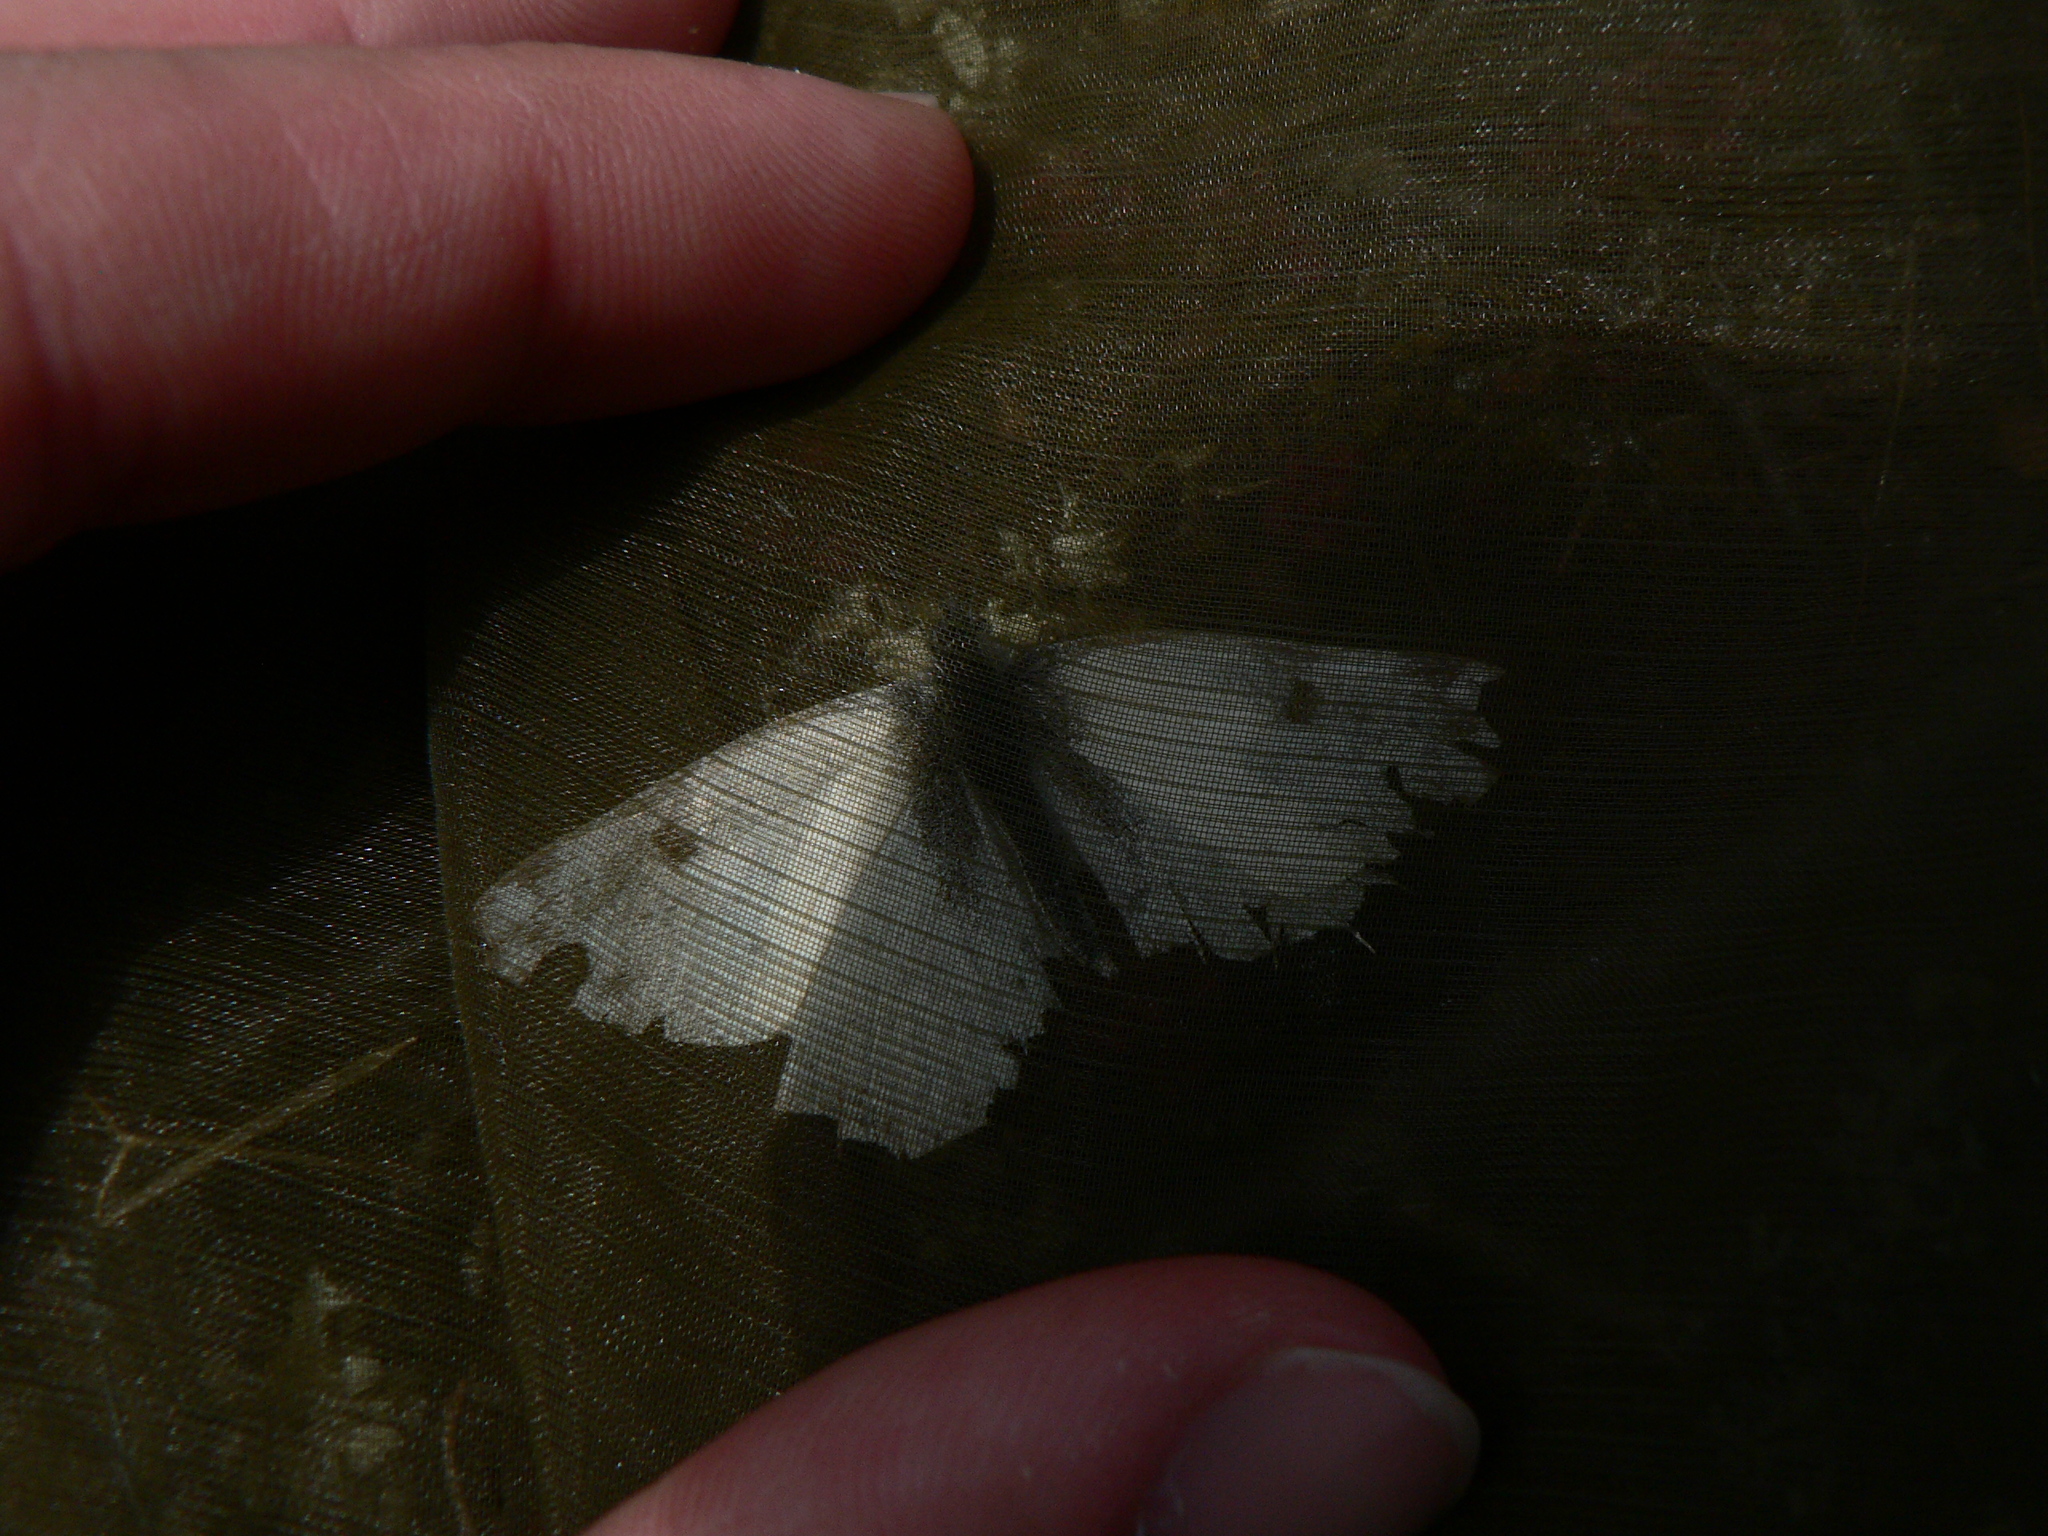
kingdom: Animalia
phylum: Arthropoda
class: Insecta
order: Lepidoptera
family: Pieridae
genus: Pontia
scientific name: Pontia daplidice
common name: Bath white
